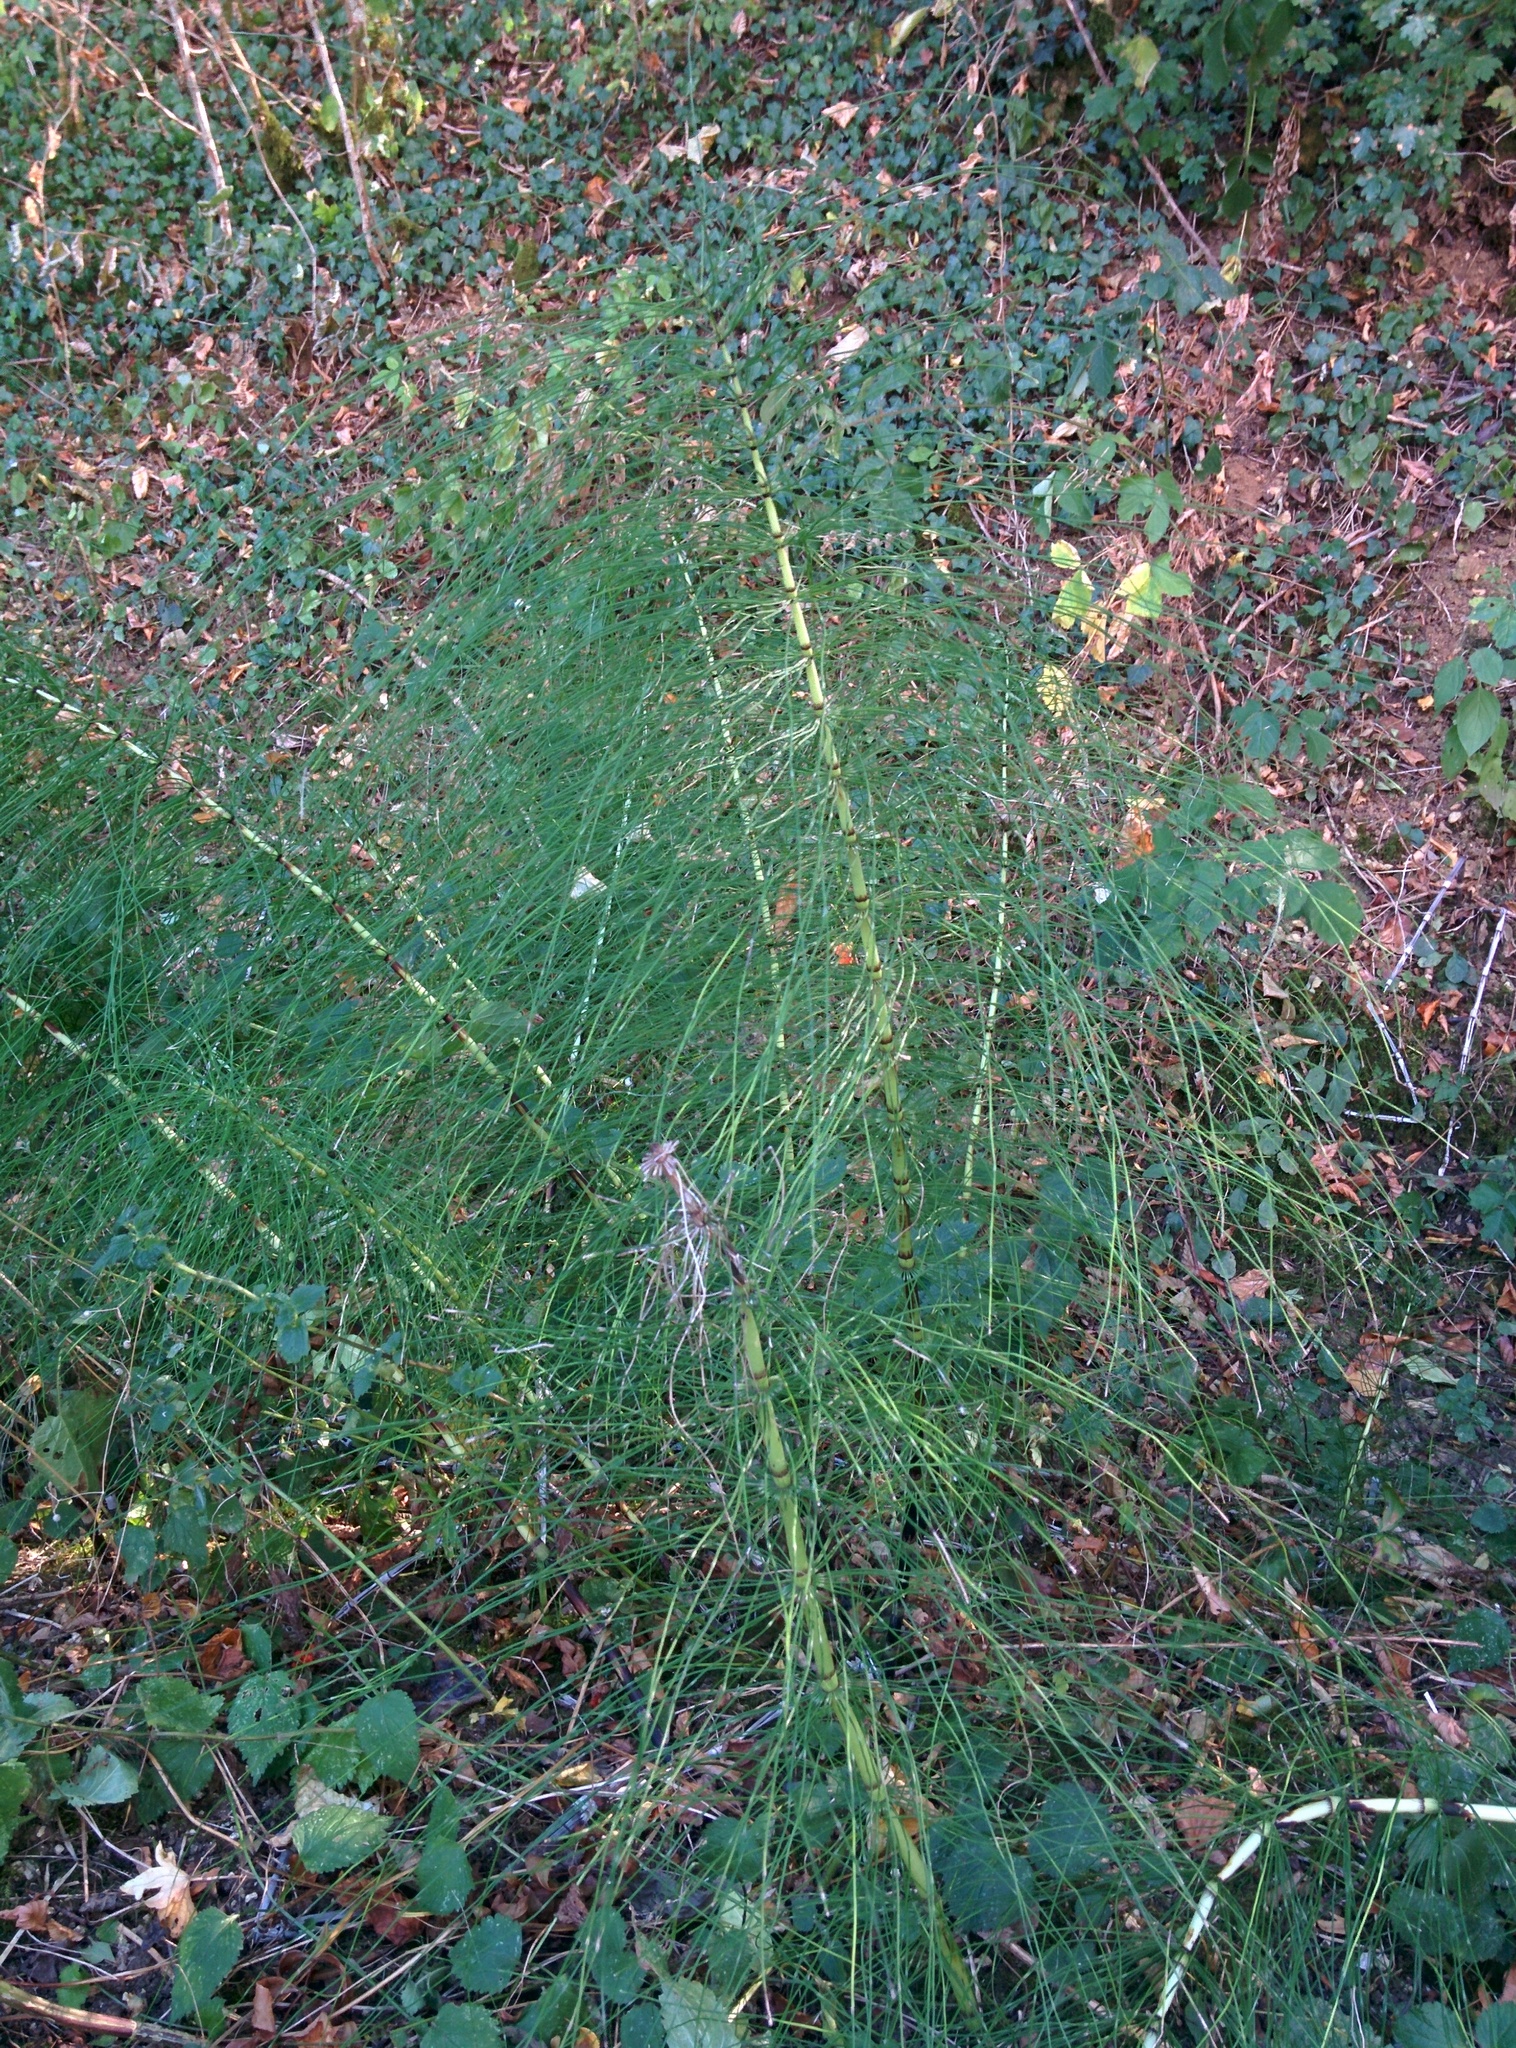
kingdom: Plantae
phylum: Tracheophyta
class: Polypodiopsida
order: Equisetales
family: Equisetaceae
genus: Equisetum
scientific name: Equisetum telmateia
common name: Great horsetail
